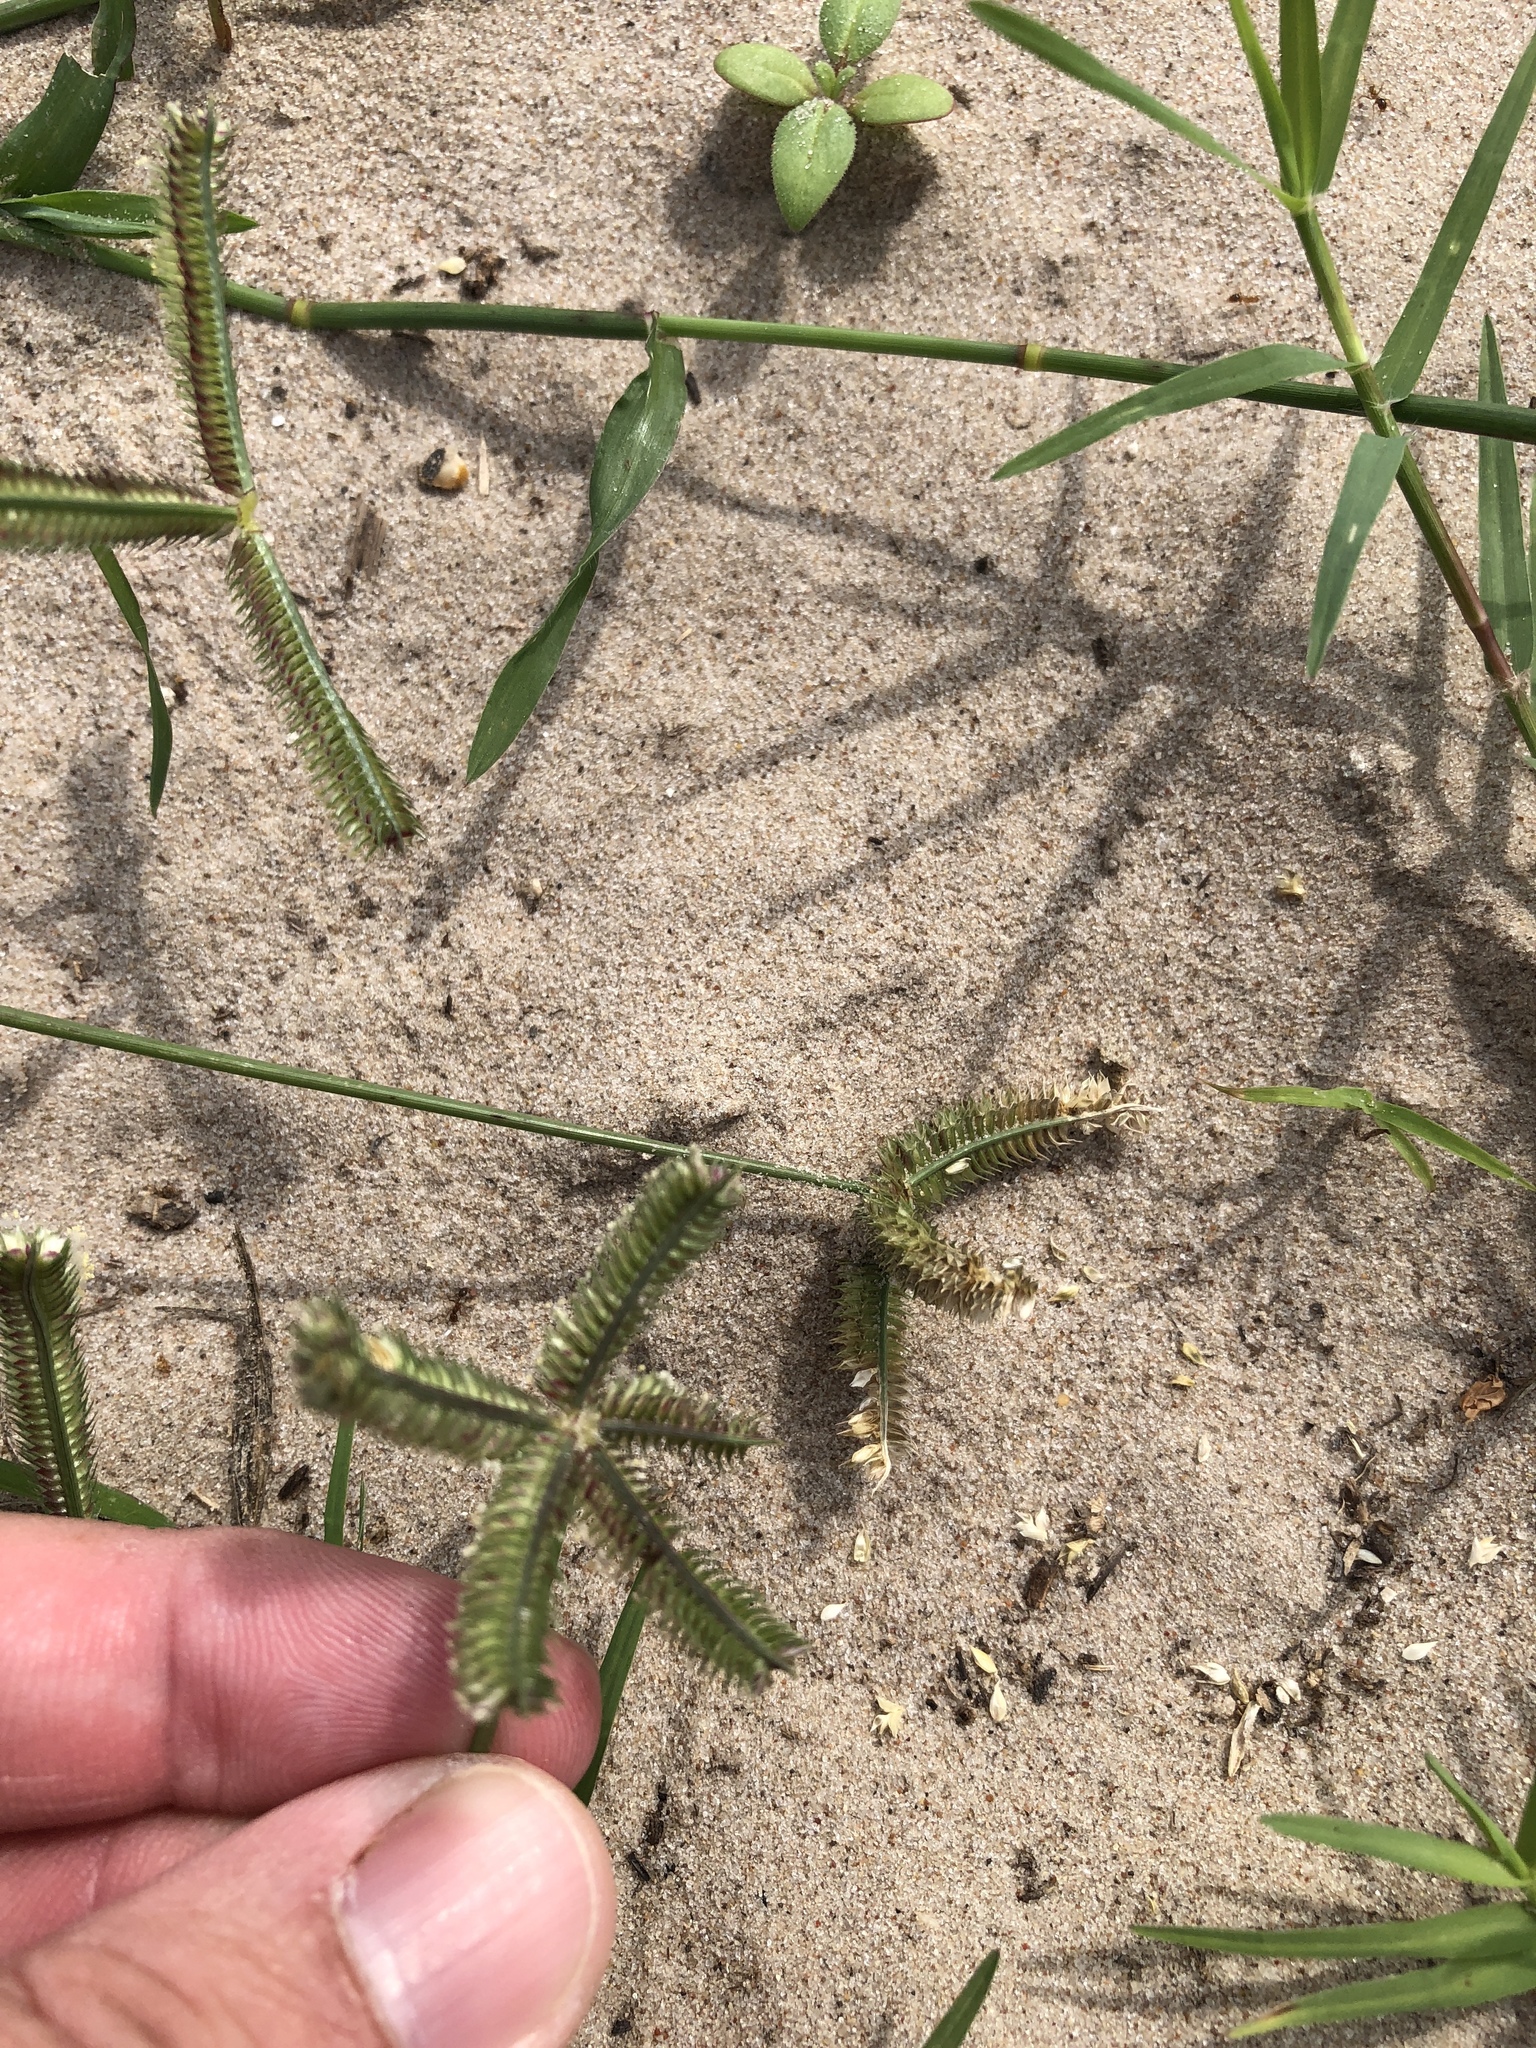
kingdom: Plantae
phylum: Tracheophyta
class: Liliopsida
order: Poales
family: Poaceae
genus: Dactyloctenium
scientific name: Dactyloctenium aegyptium
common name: Egyptian grass
